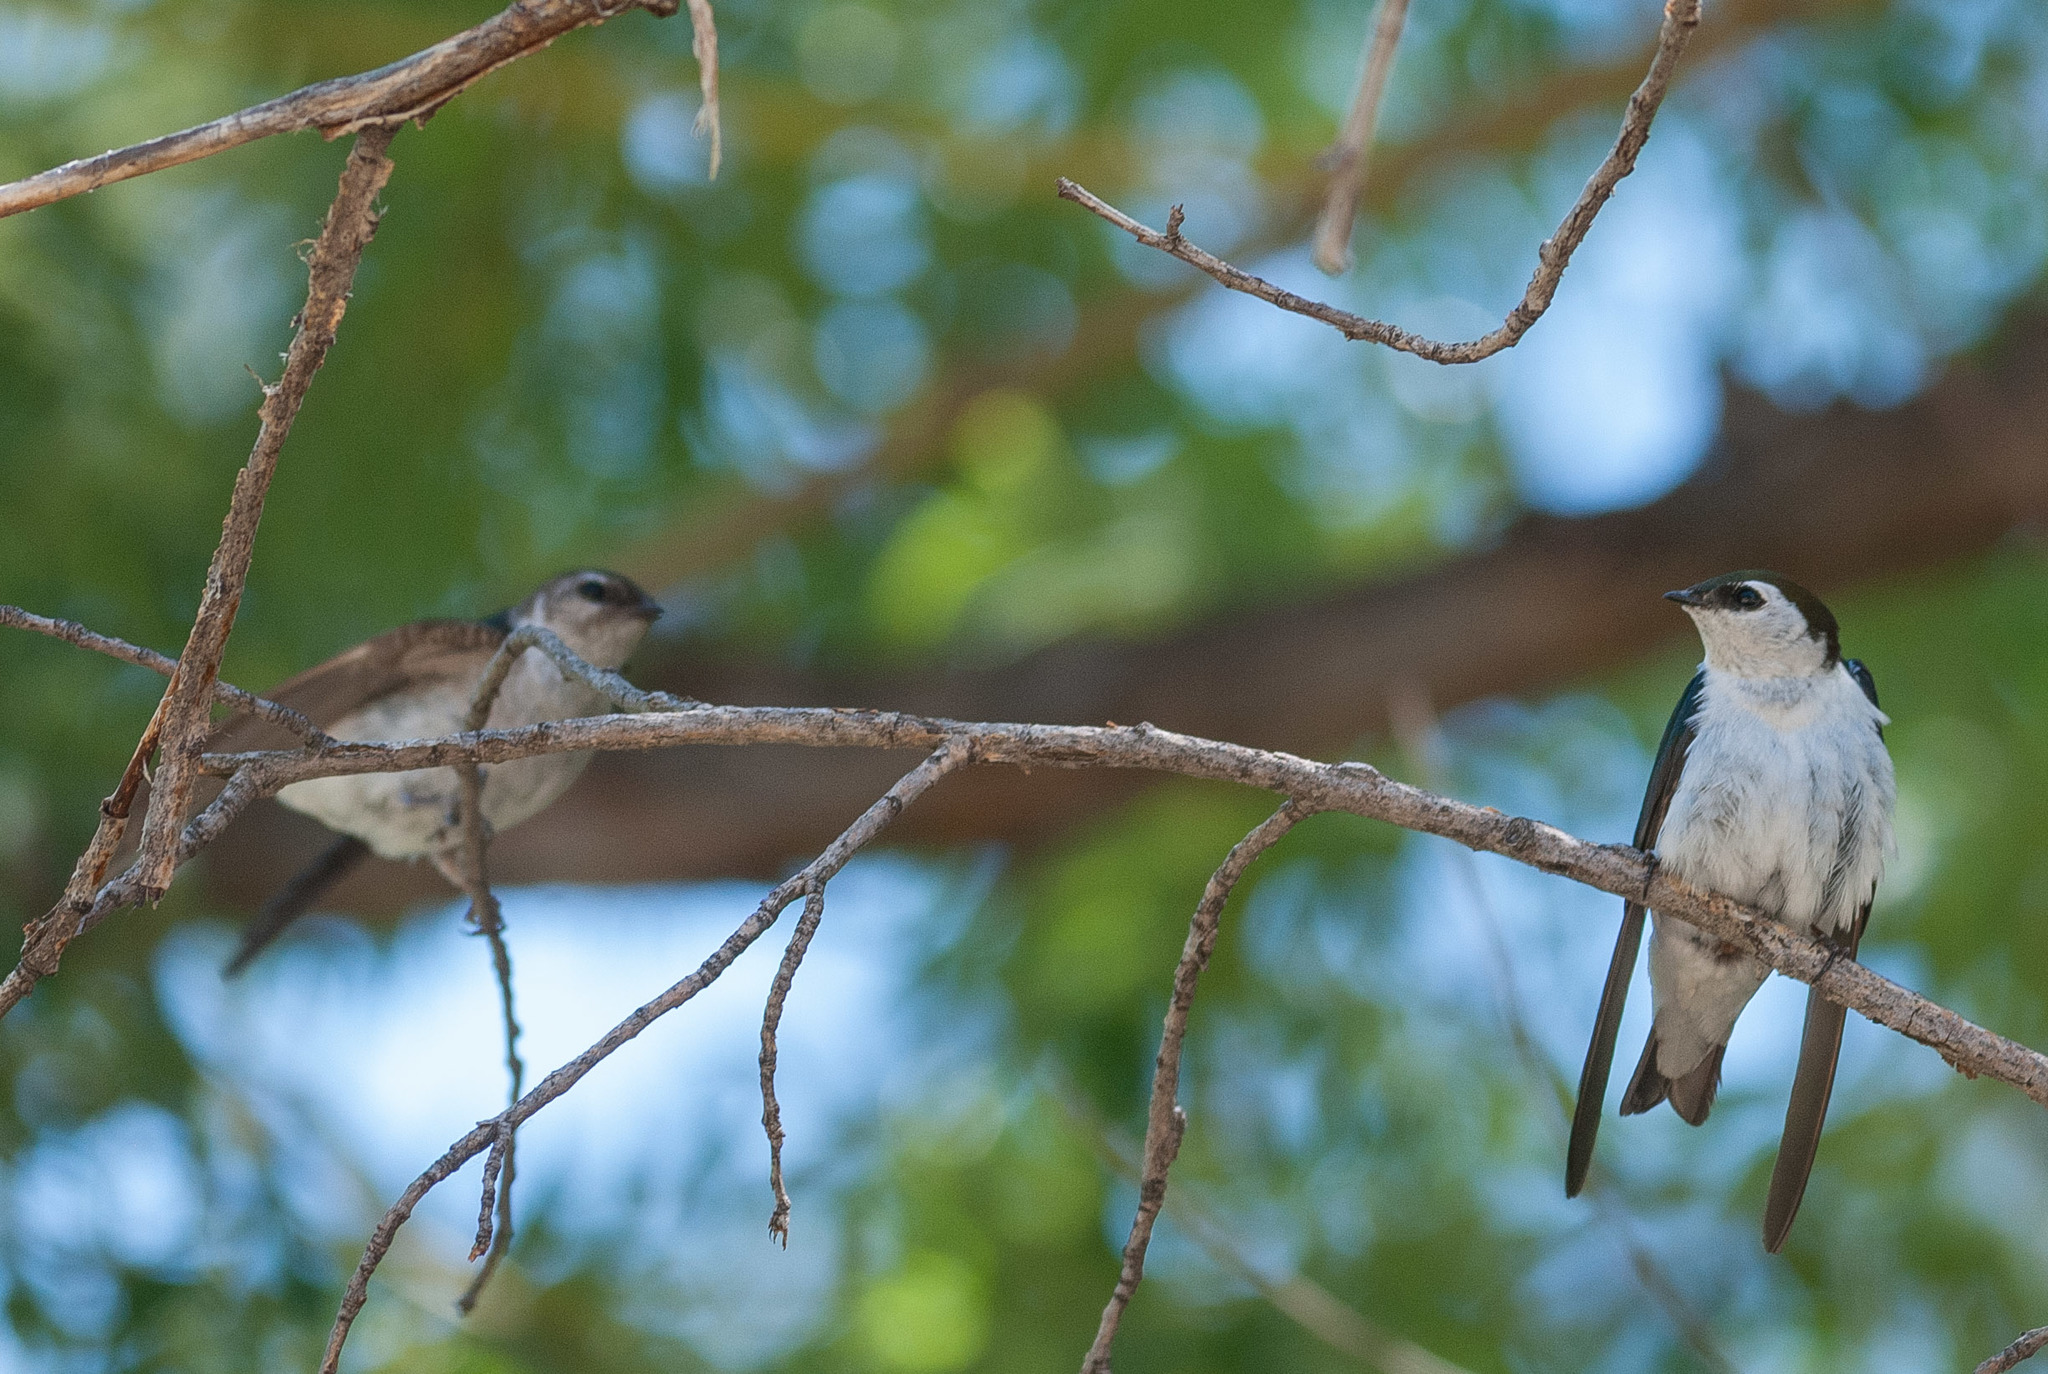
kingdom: Animalia
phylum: Chordata
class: Aves
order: Passeriformes
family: Hirundinidae
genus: Tachycineta
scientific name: Tachycineta thalassina
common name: Violet-green swallow
